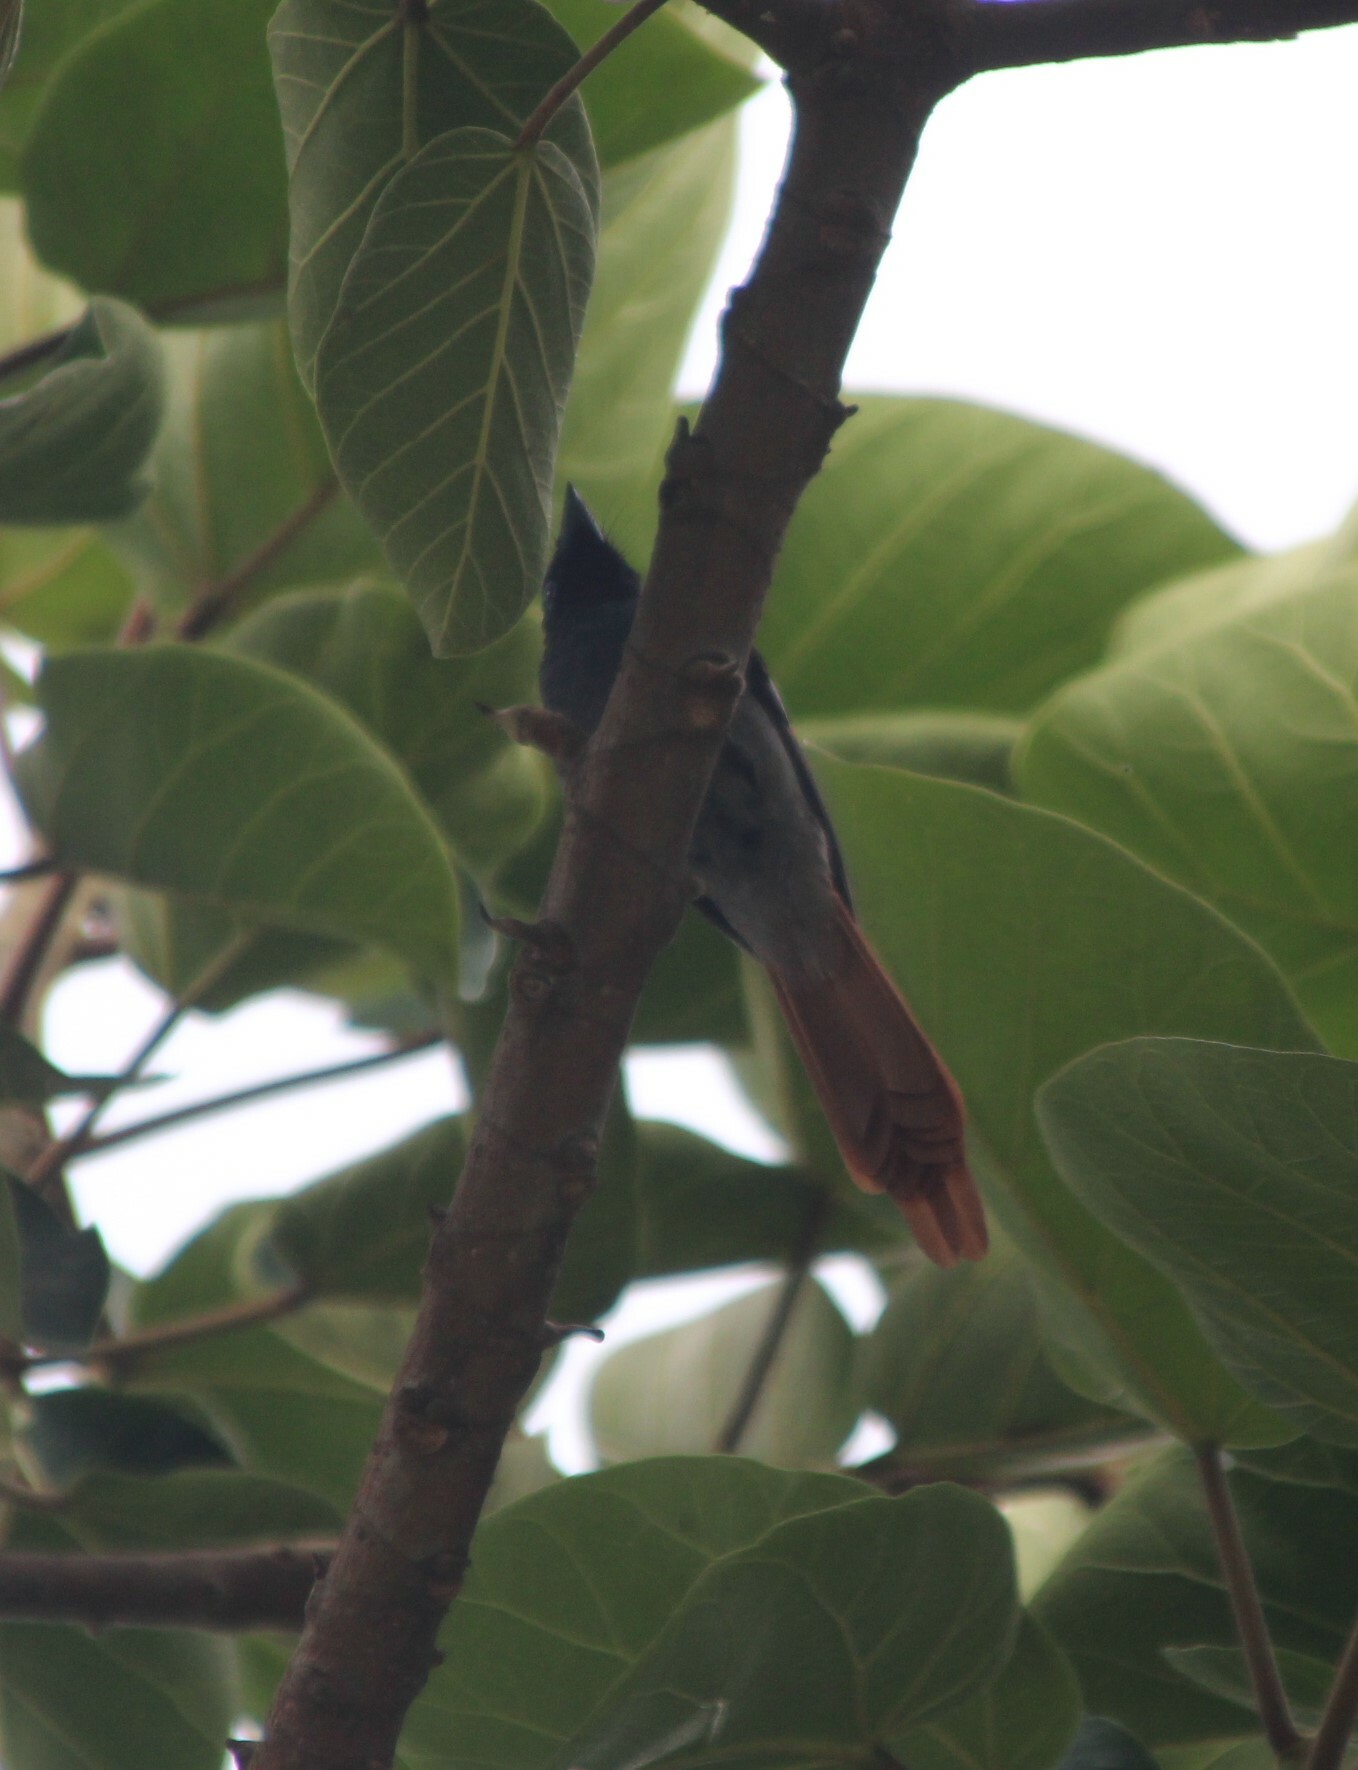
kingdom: Animalia
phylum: Chordata
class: Aves
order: Passeriformes
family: Monarchidae
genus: Terpsiphone
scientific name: Terpsiphone viridis
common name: African paradise flycatcher
